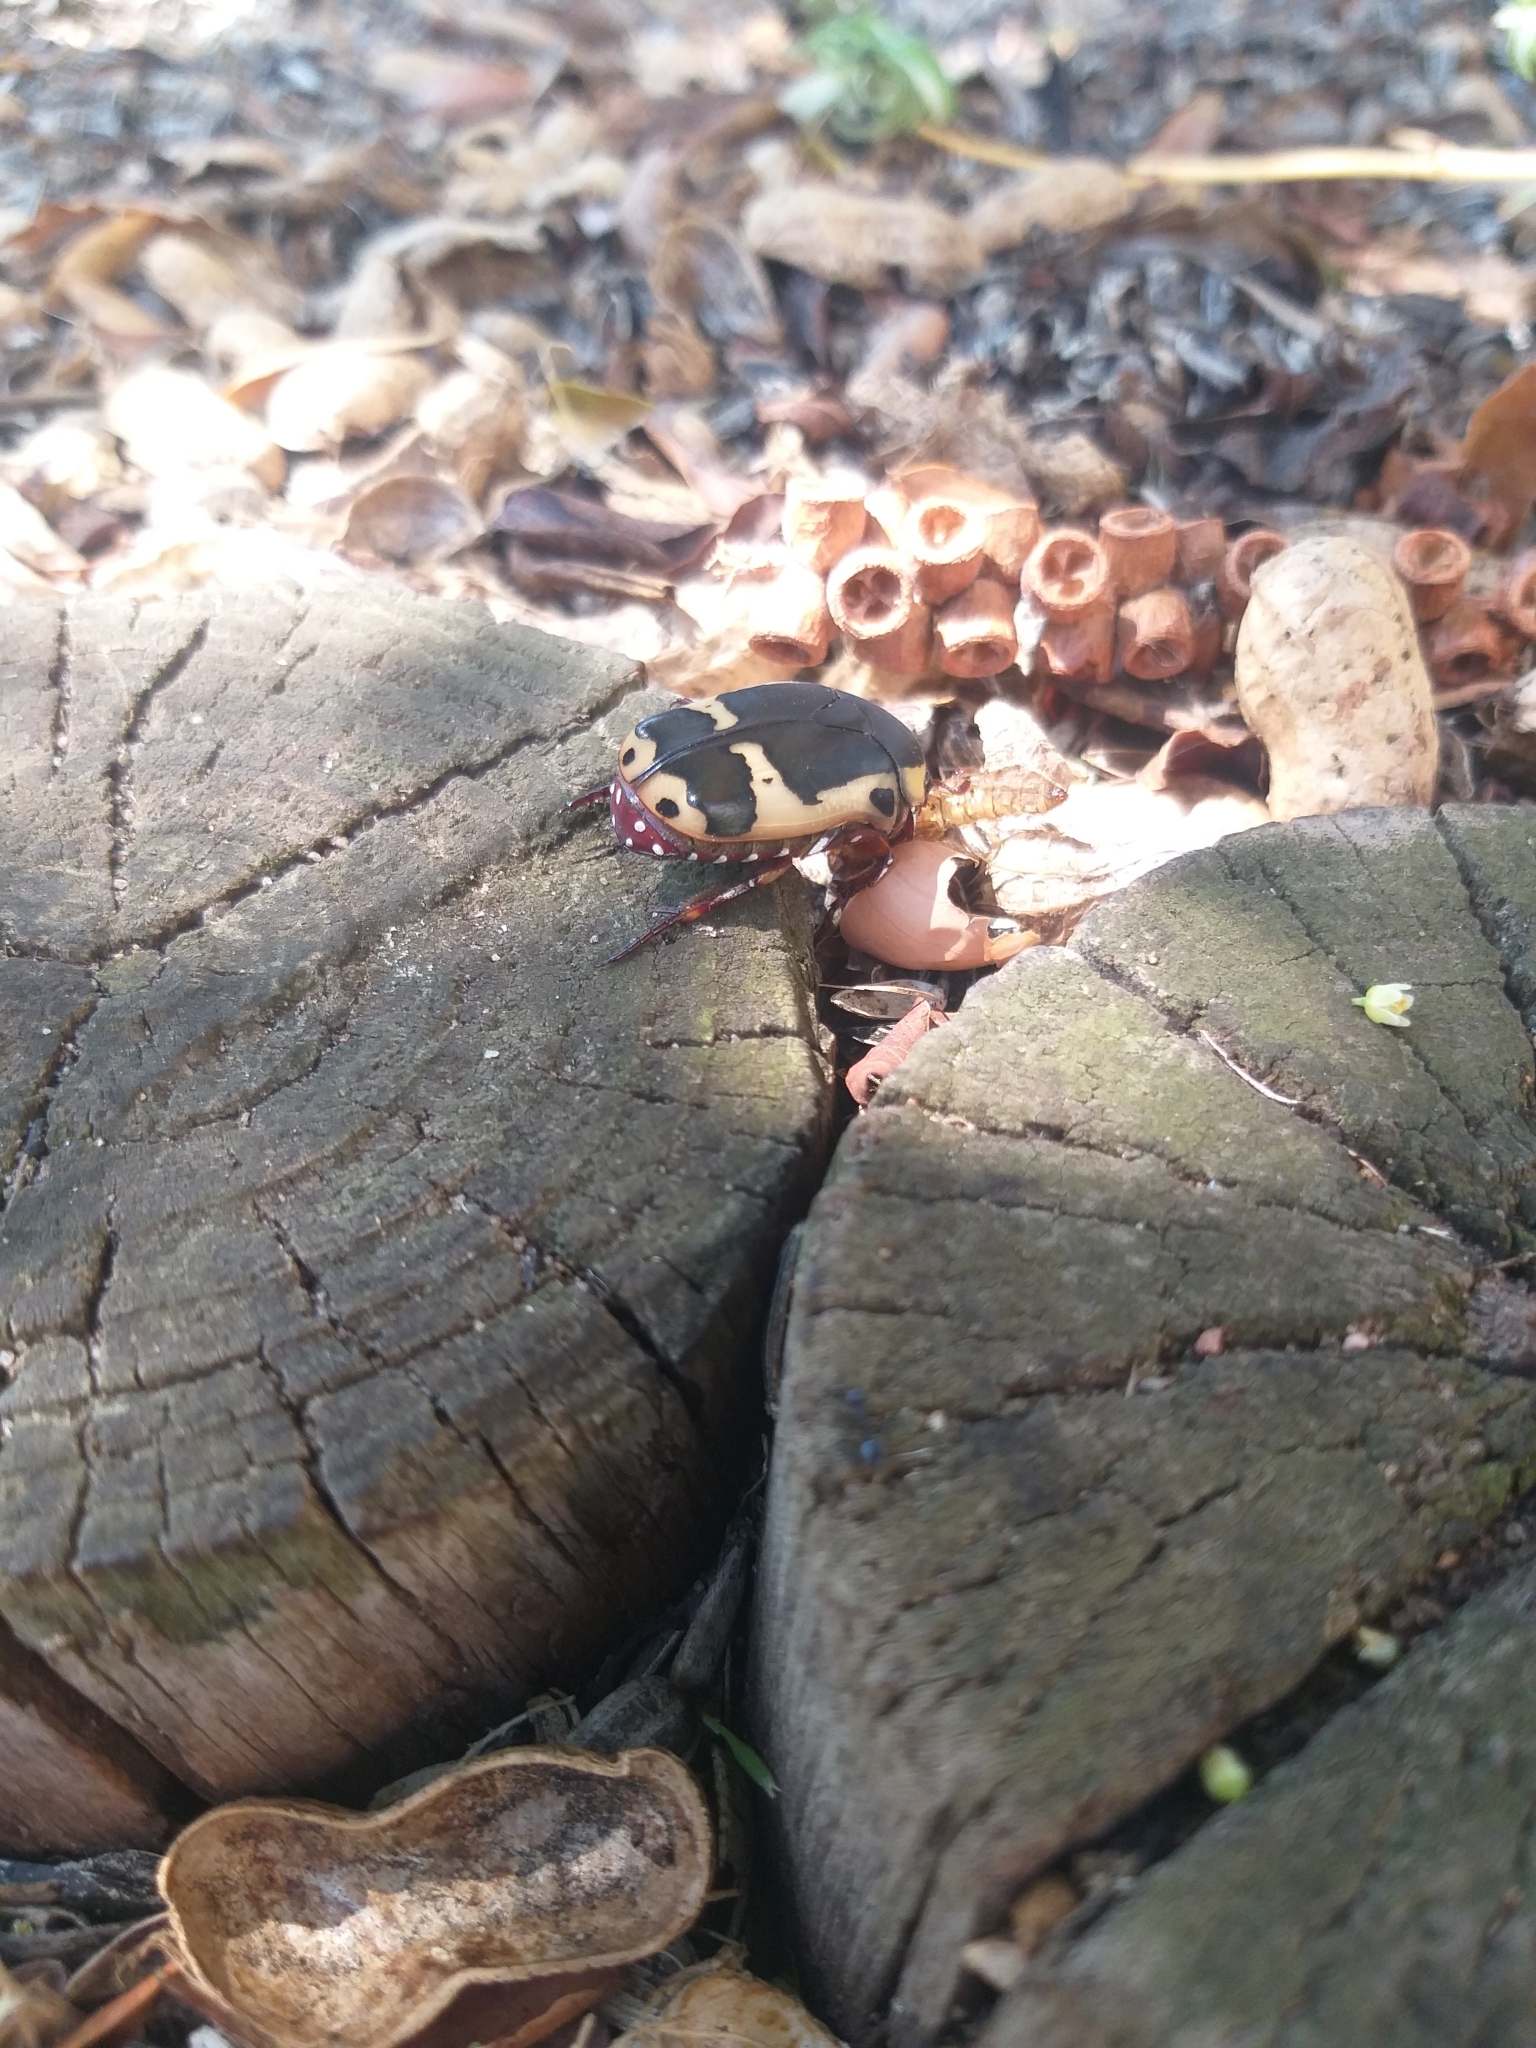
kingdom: Animalia
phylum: Arthropoda
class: Insecta
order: Coleoptera
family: Scarabaeidae
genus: Pachnoda
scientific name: Pachnoda sinuata
